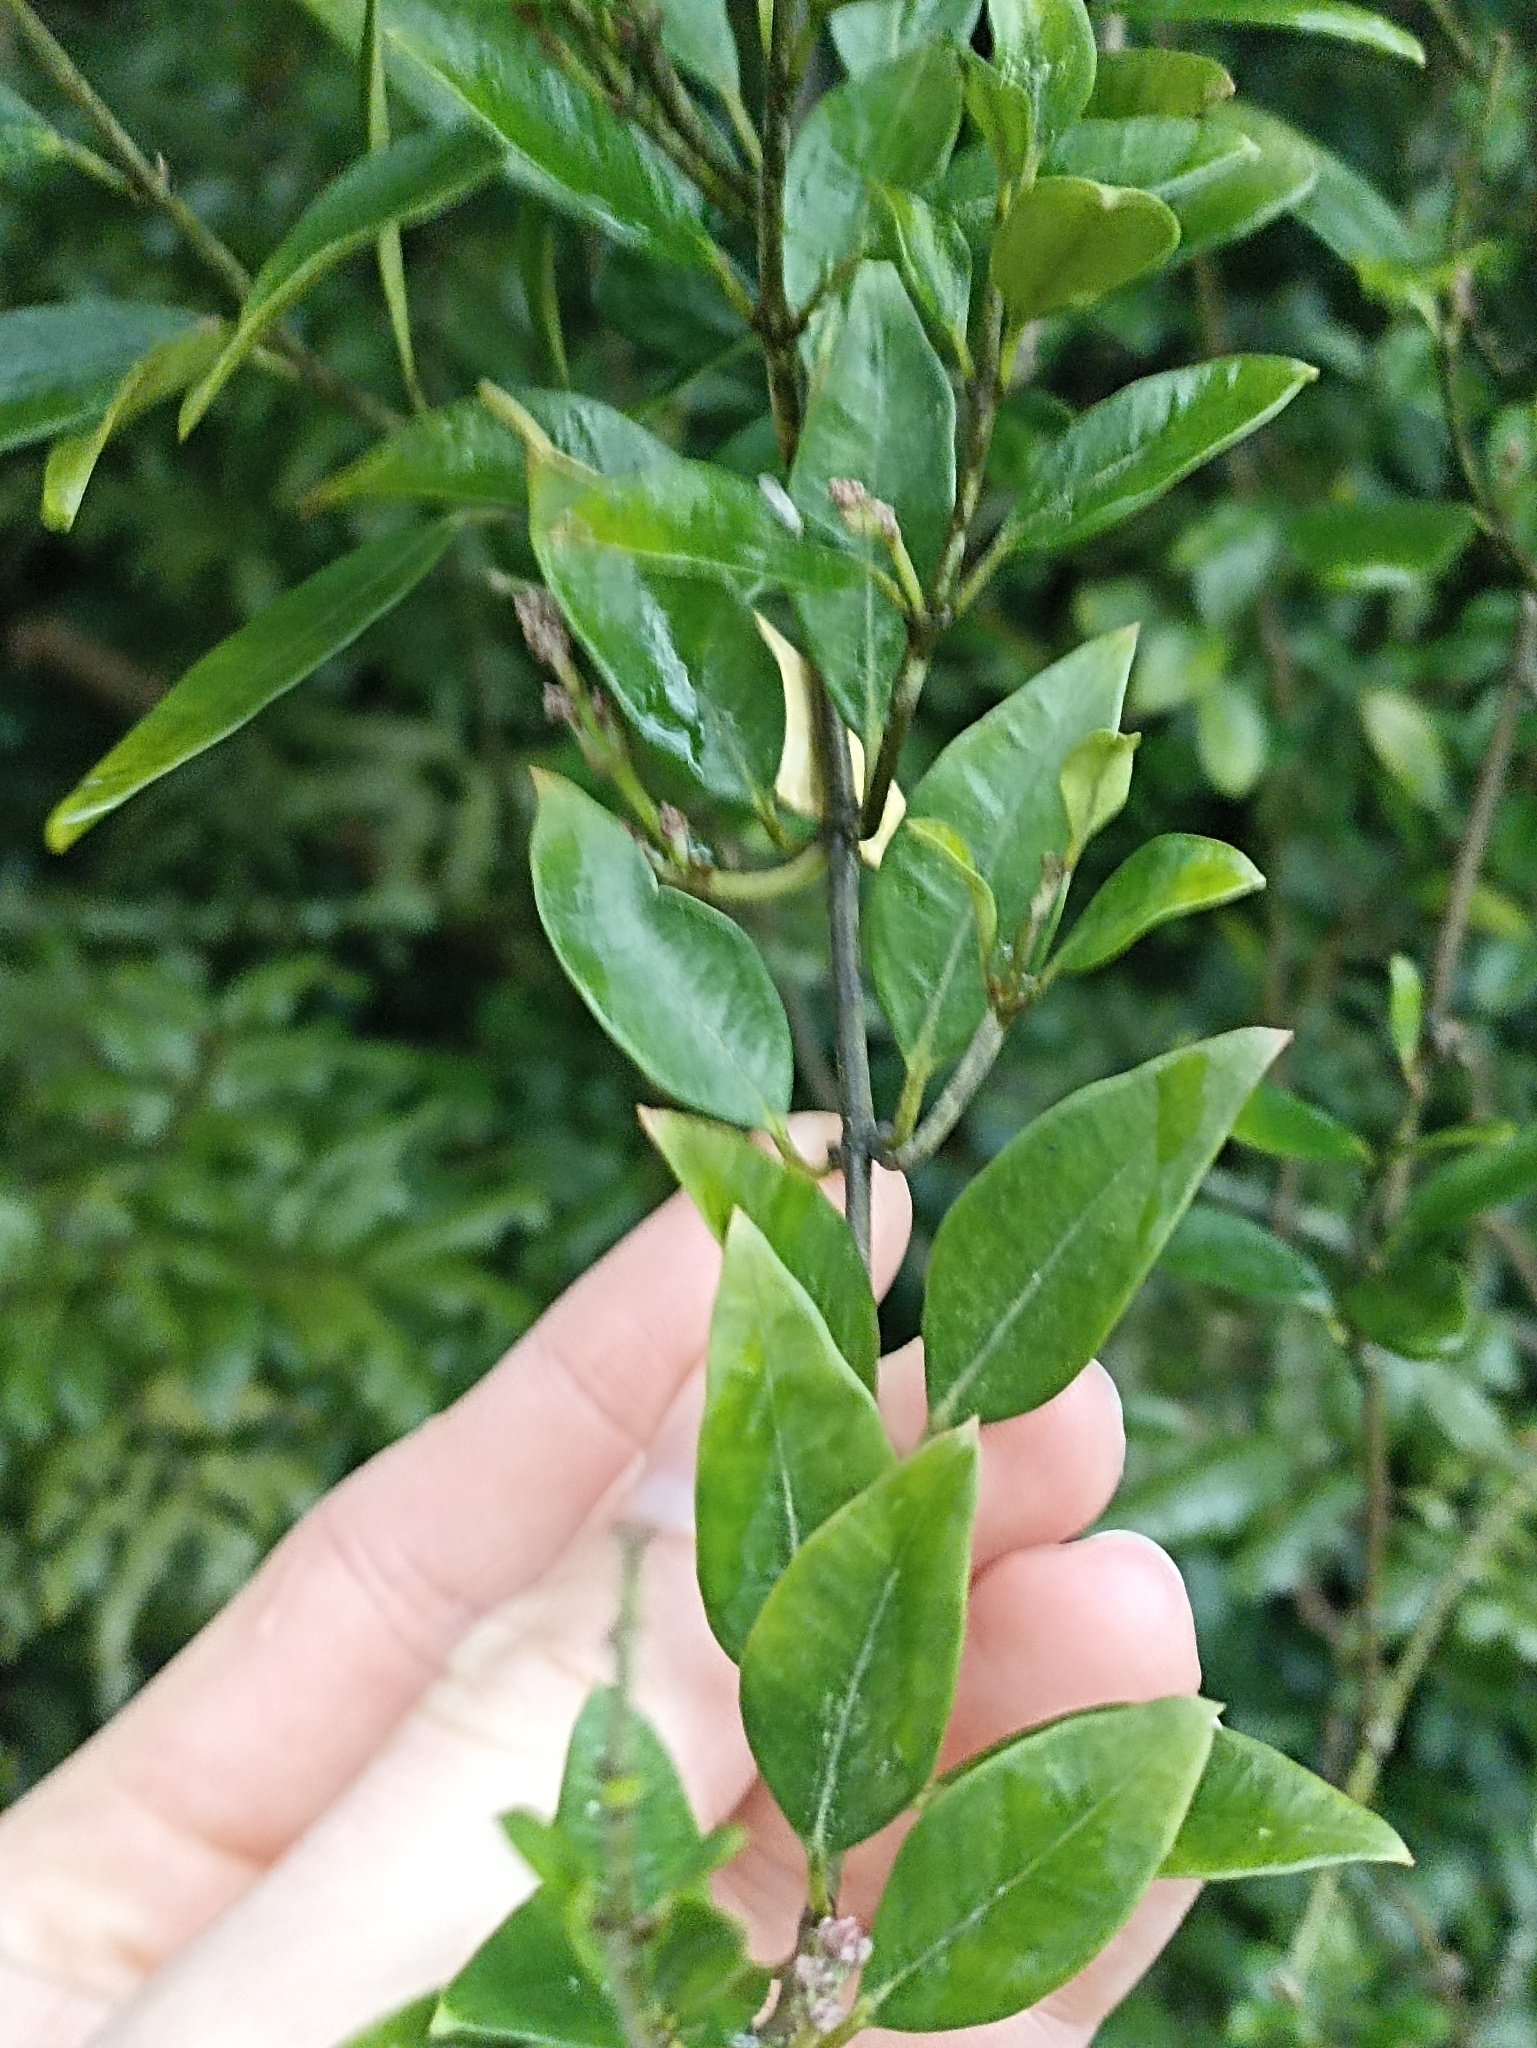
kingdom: Plantae
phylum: Tracheophyta
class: Magnoliopsida
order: Gentianales
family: Apocynaceae
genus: Parsonsia
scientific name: Parsonsia heterophylla
